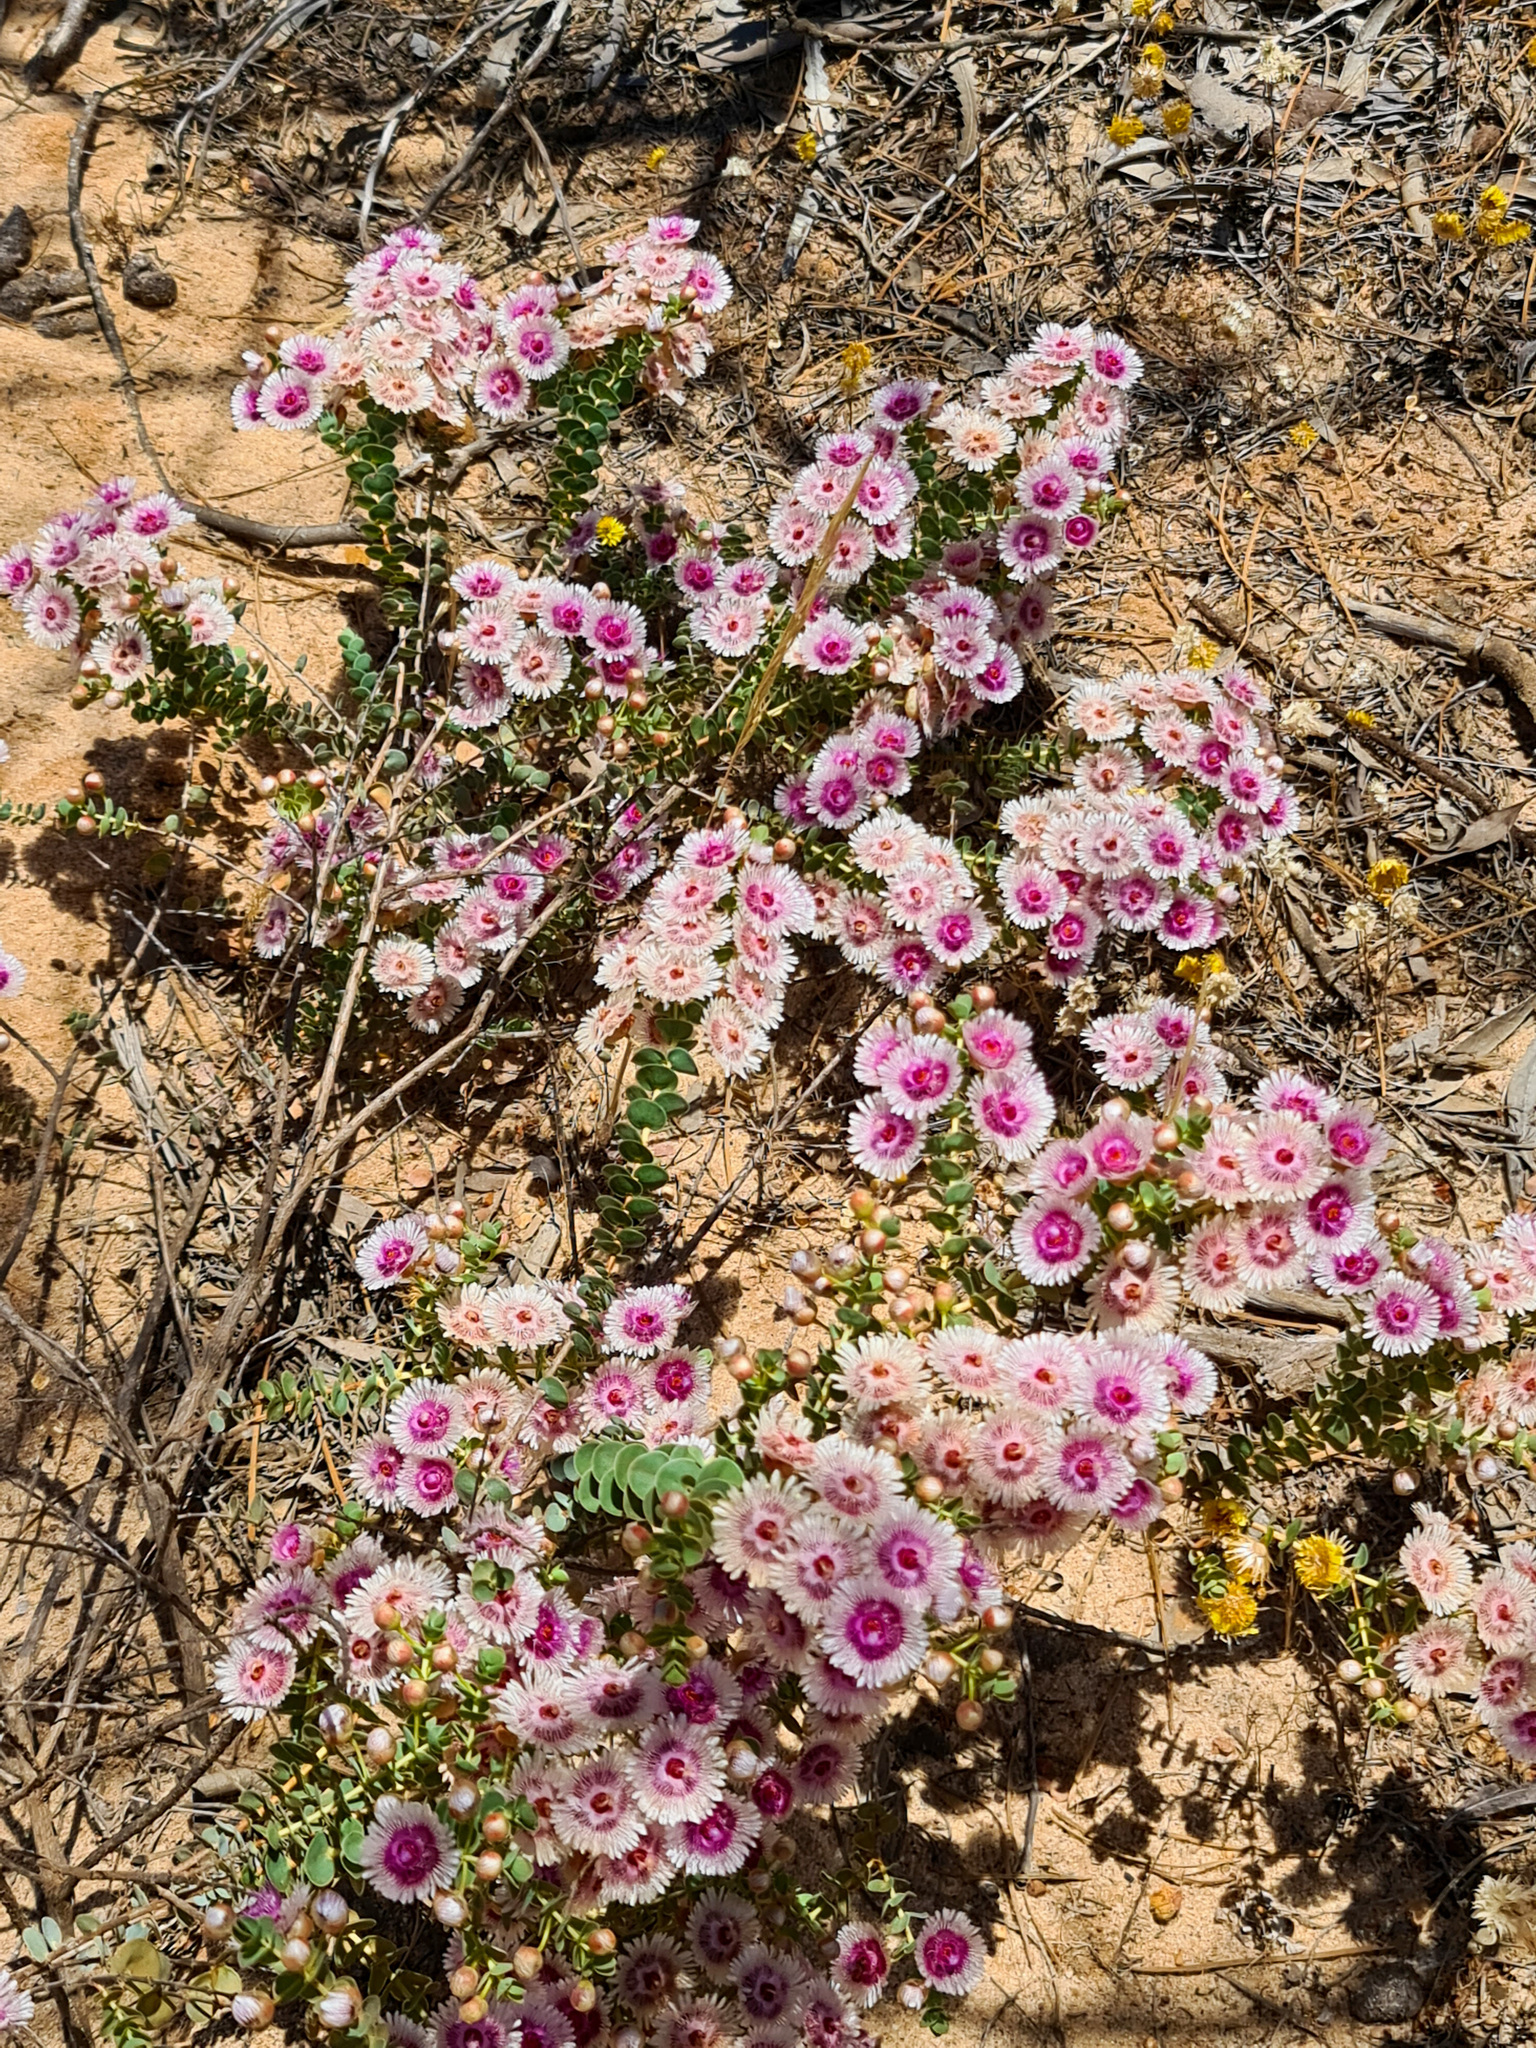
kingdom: Plantae
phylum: Tracheophyta
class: Magnoliopsida
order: Myrtales
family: Myrtaceae
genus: Verticordia
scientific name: Verticordia oculata
